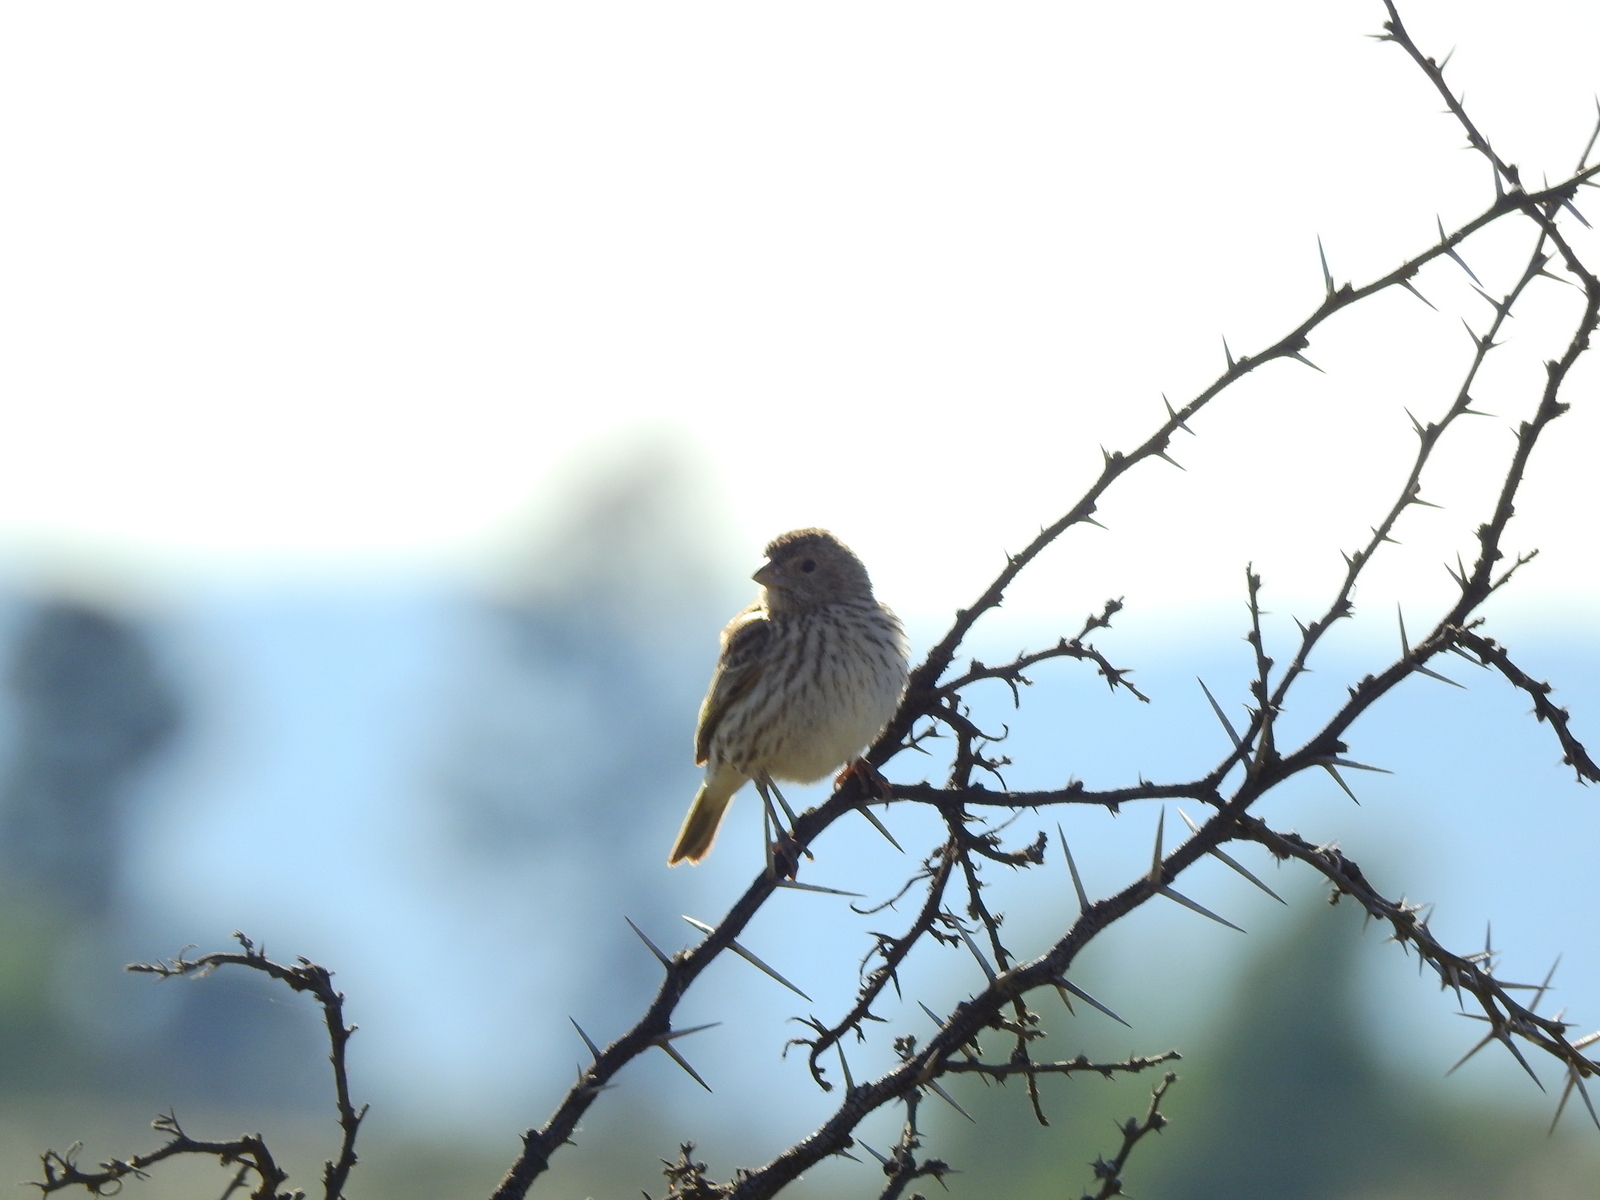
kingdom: Animalia
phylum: Chordata
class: Aves
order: Passeriformes
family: Thraupidae
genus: Sicalis
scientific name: Sicalis flaveola
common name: Saffron finch
